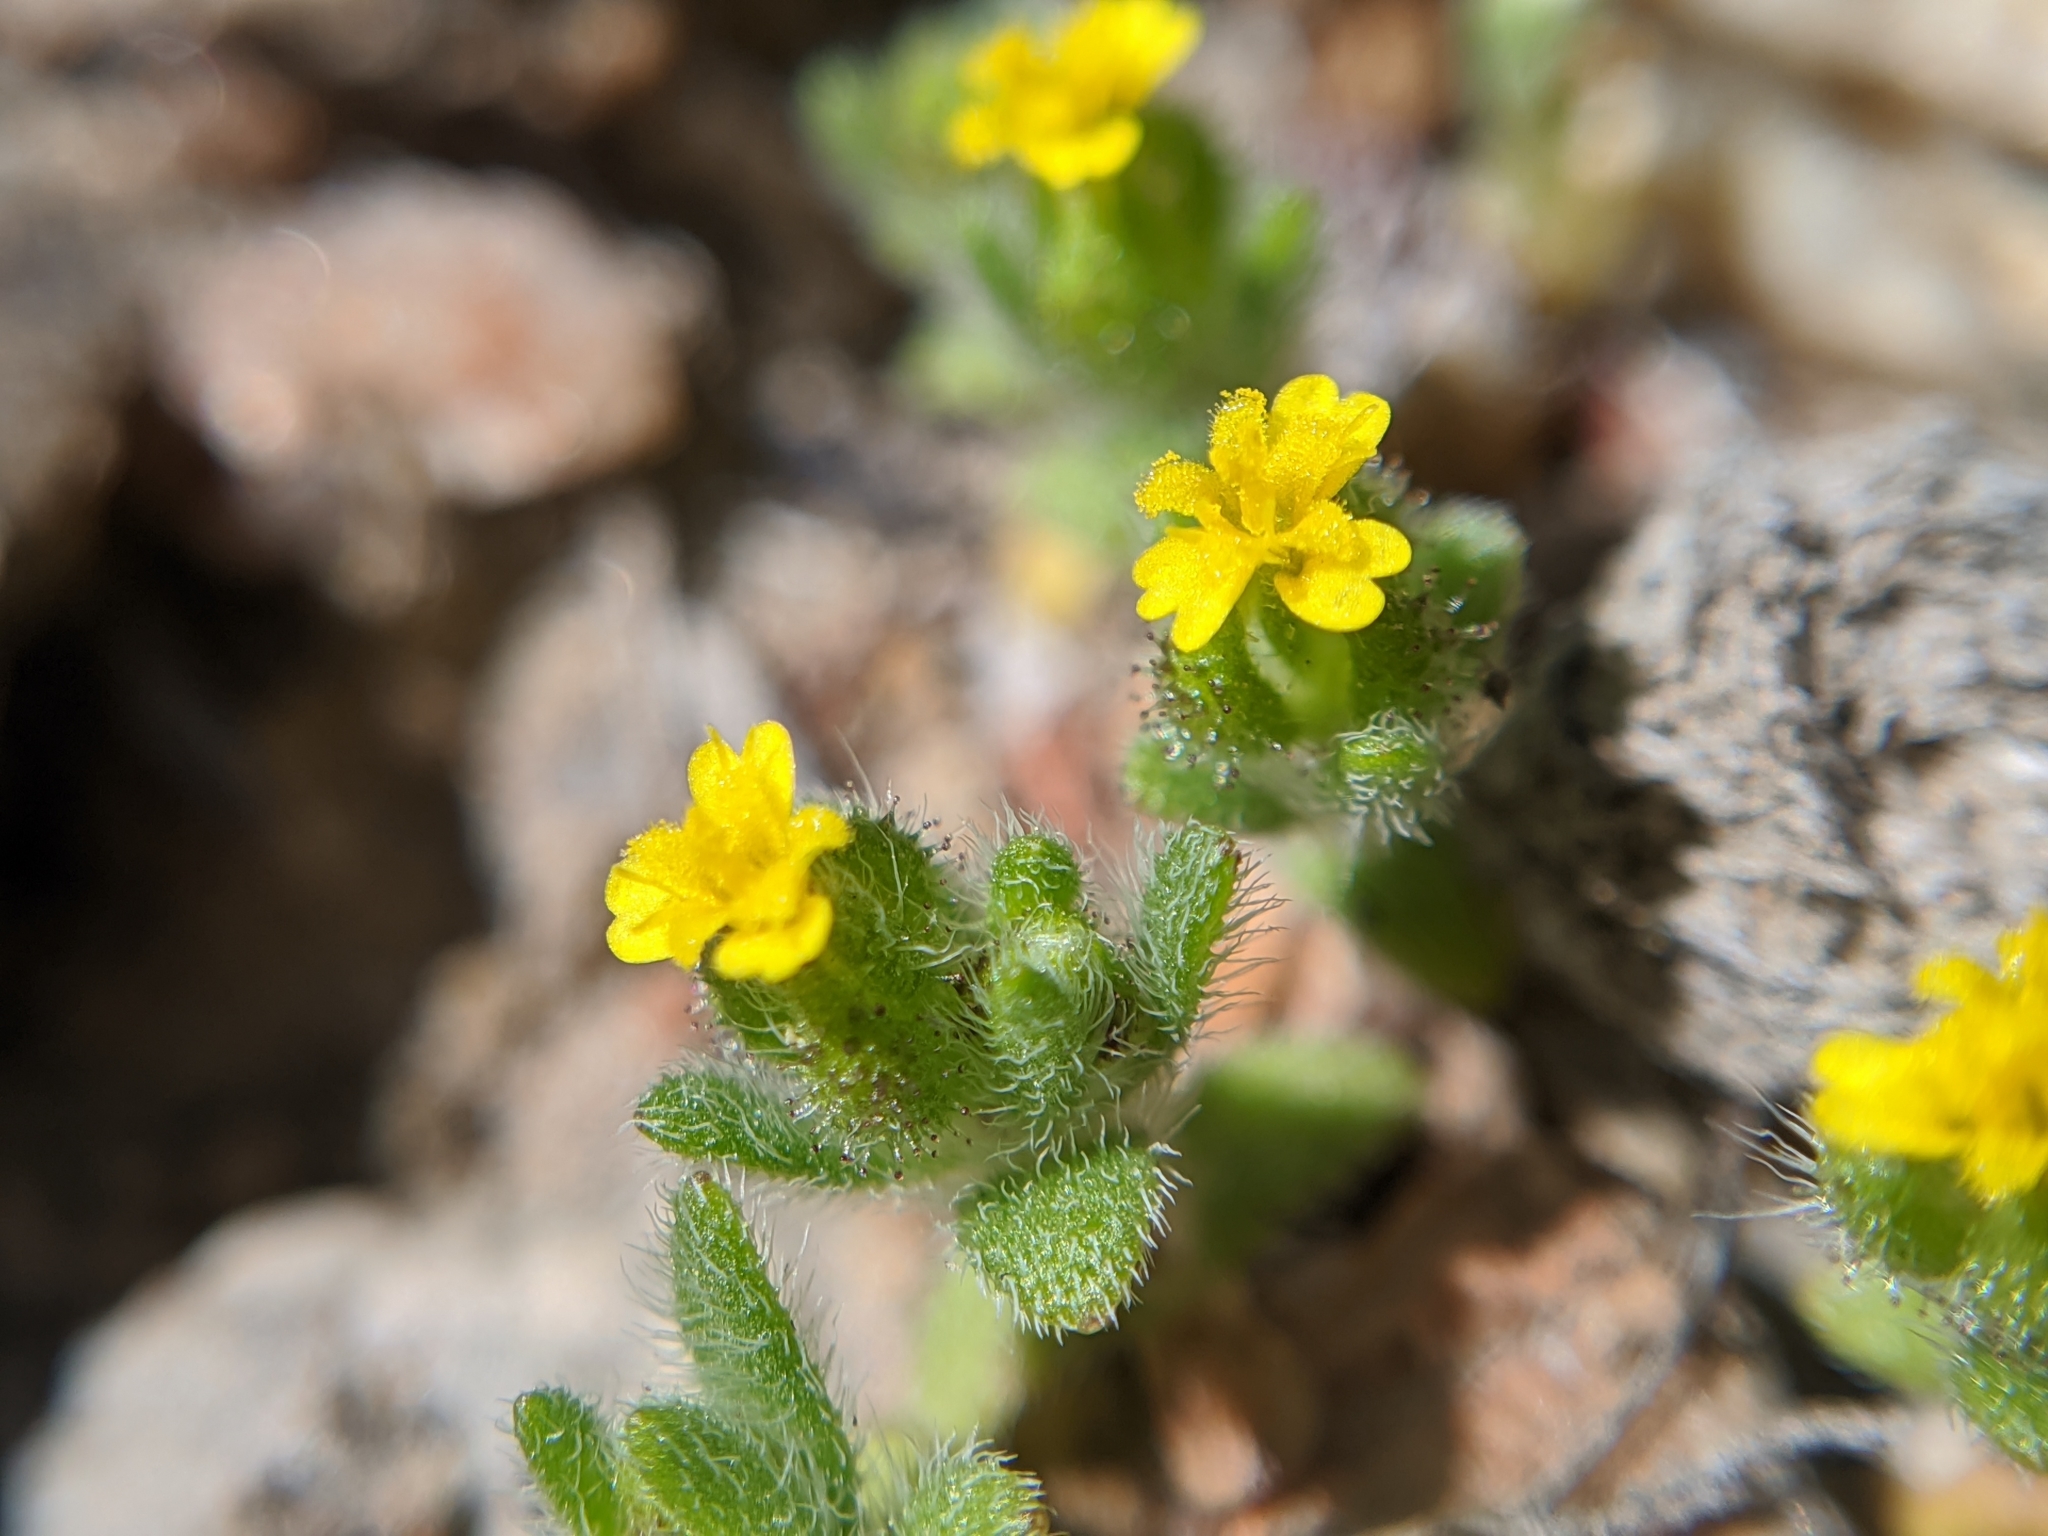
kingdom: Plantae
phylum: Tracheophyta
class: Magnoliopsida
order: Asterales
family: Asteraceae
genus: Hemizonella
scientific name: Hemizonella minima
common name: Opposite-leaved tarweed
